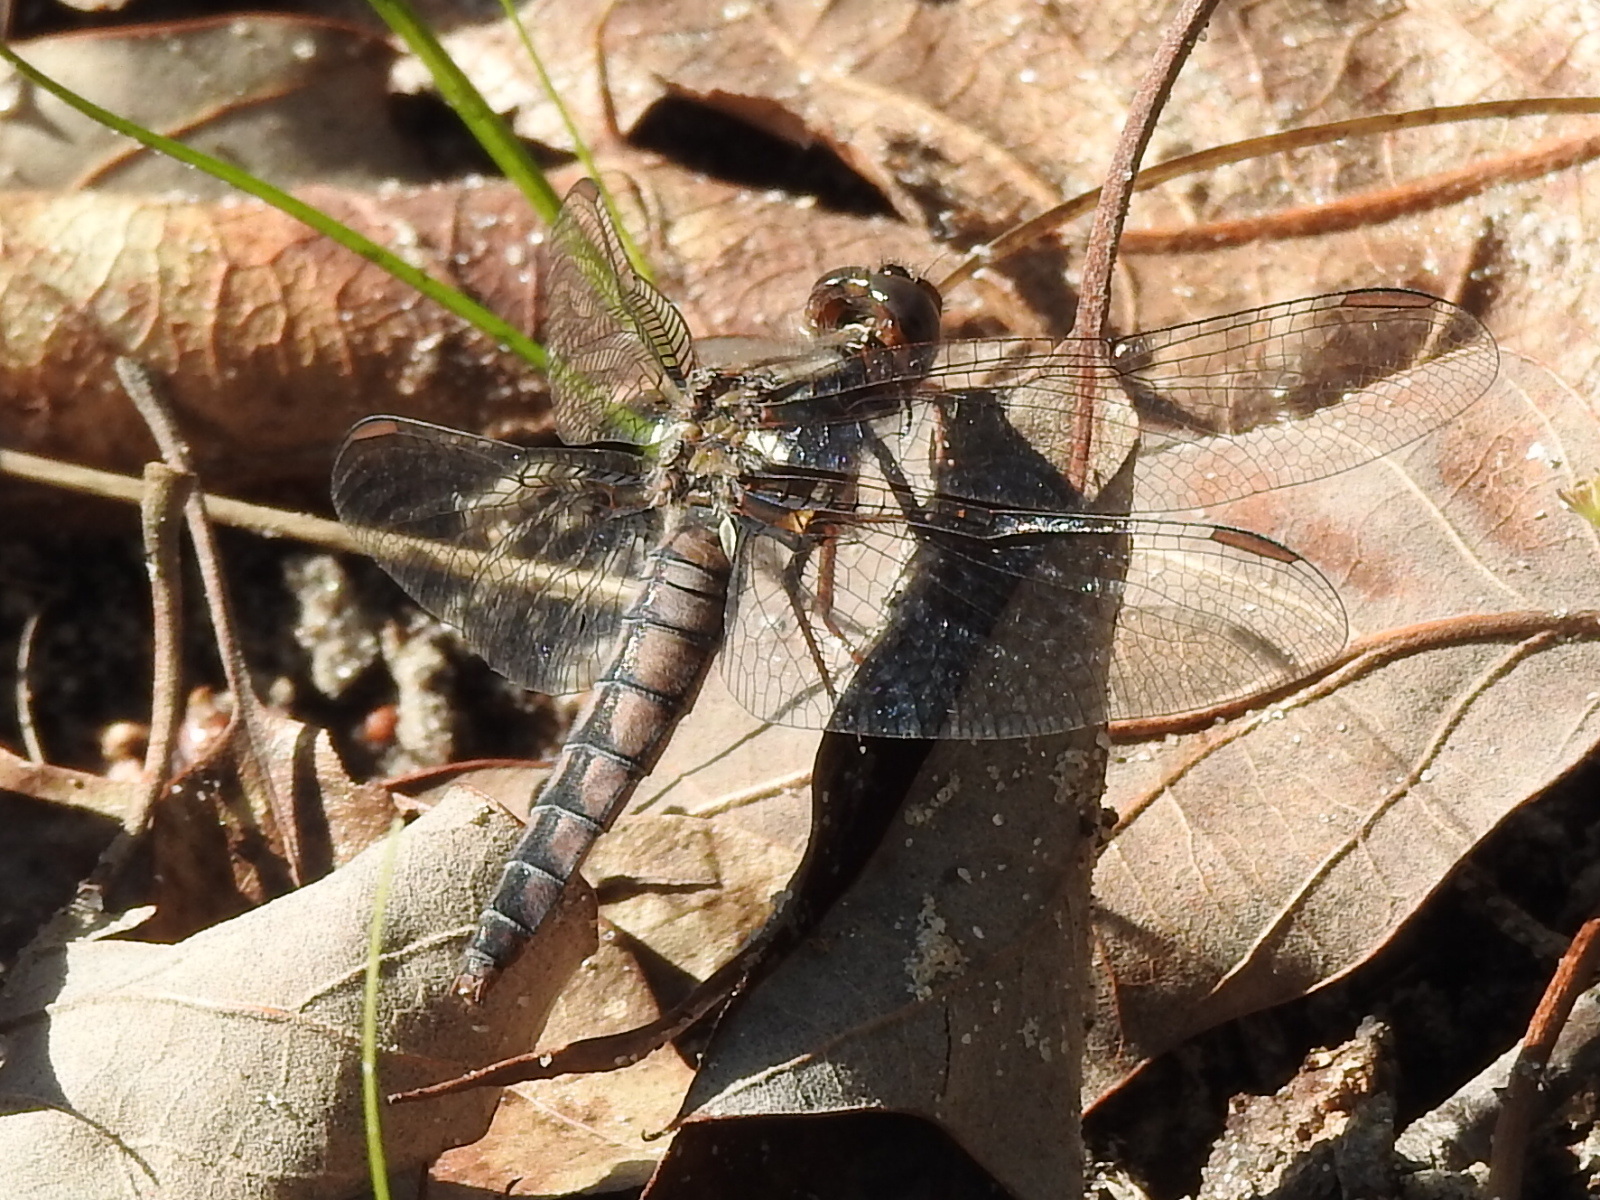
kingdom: Animalia
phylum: Arthropoda
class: Insecta
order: Odonata
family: Libellulidae
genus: Ladona
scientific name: Ladona deplanata
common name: Blue corporal
